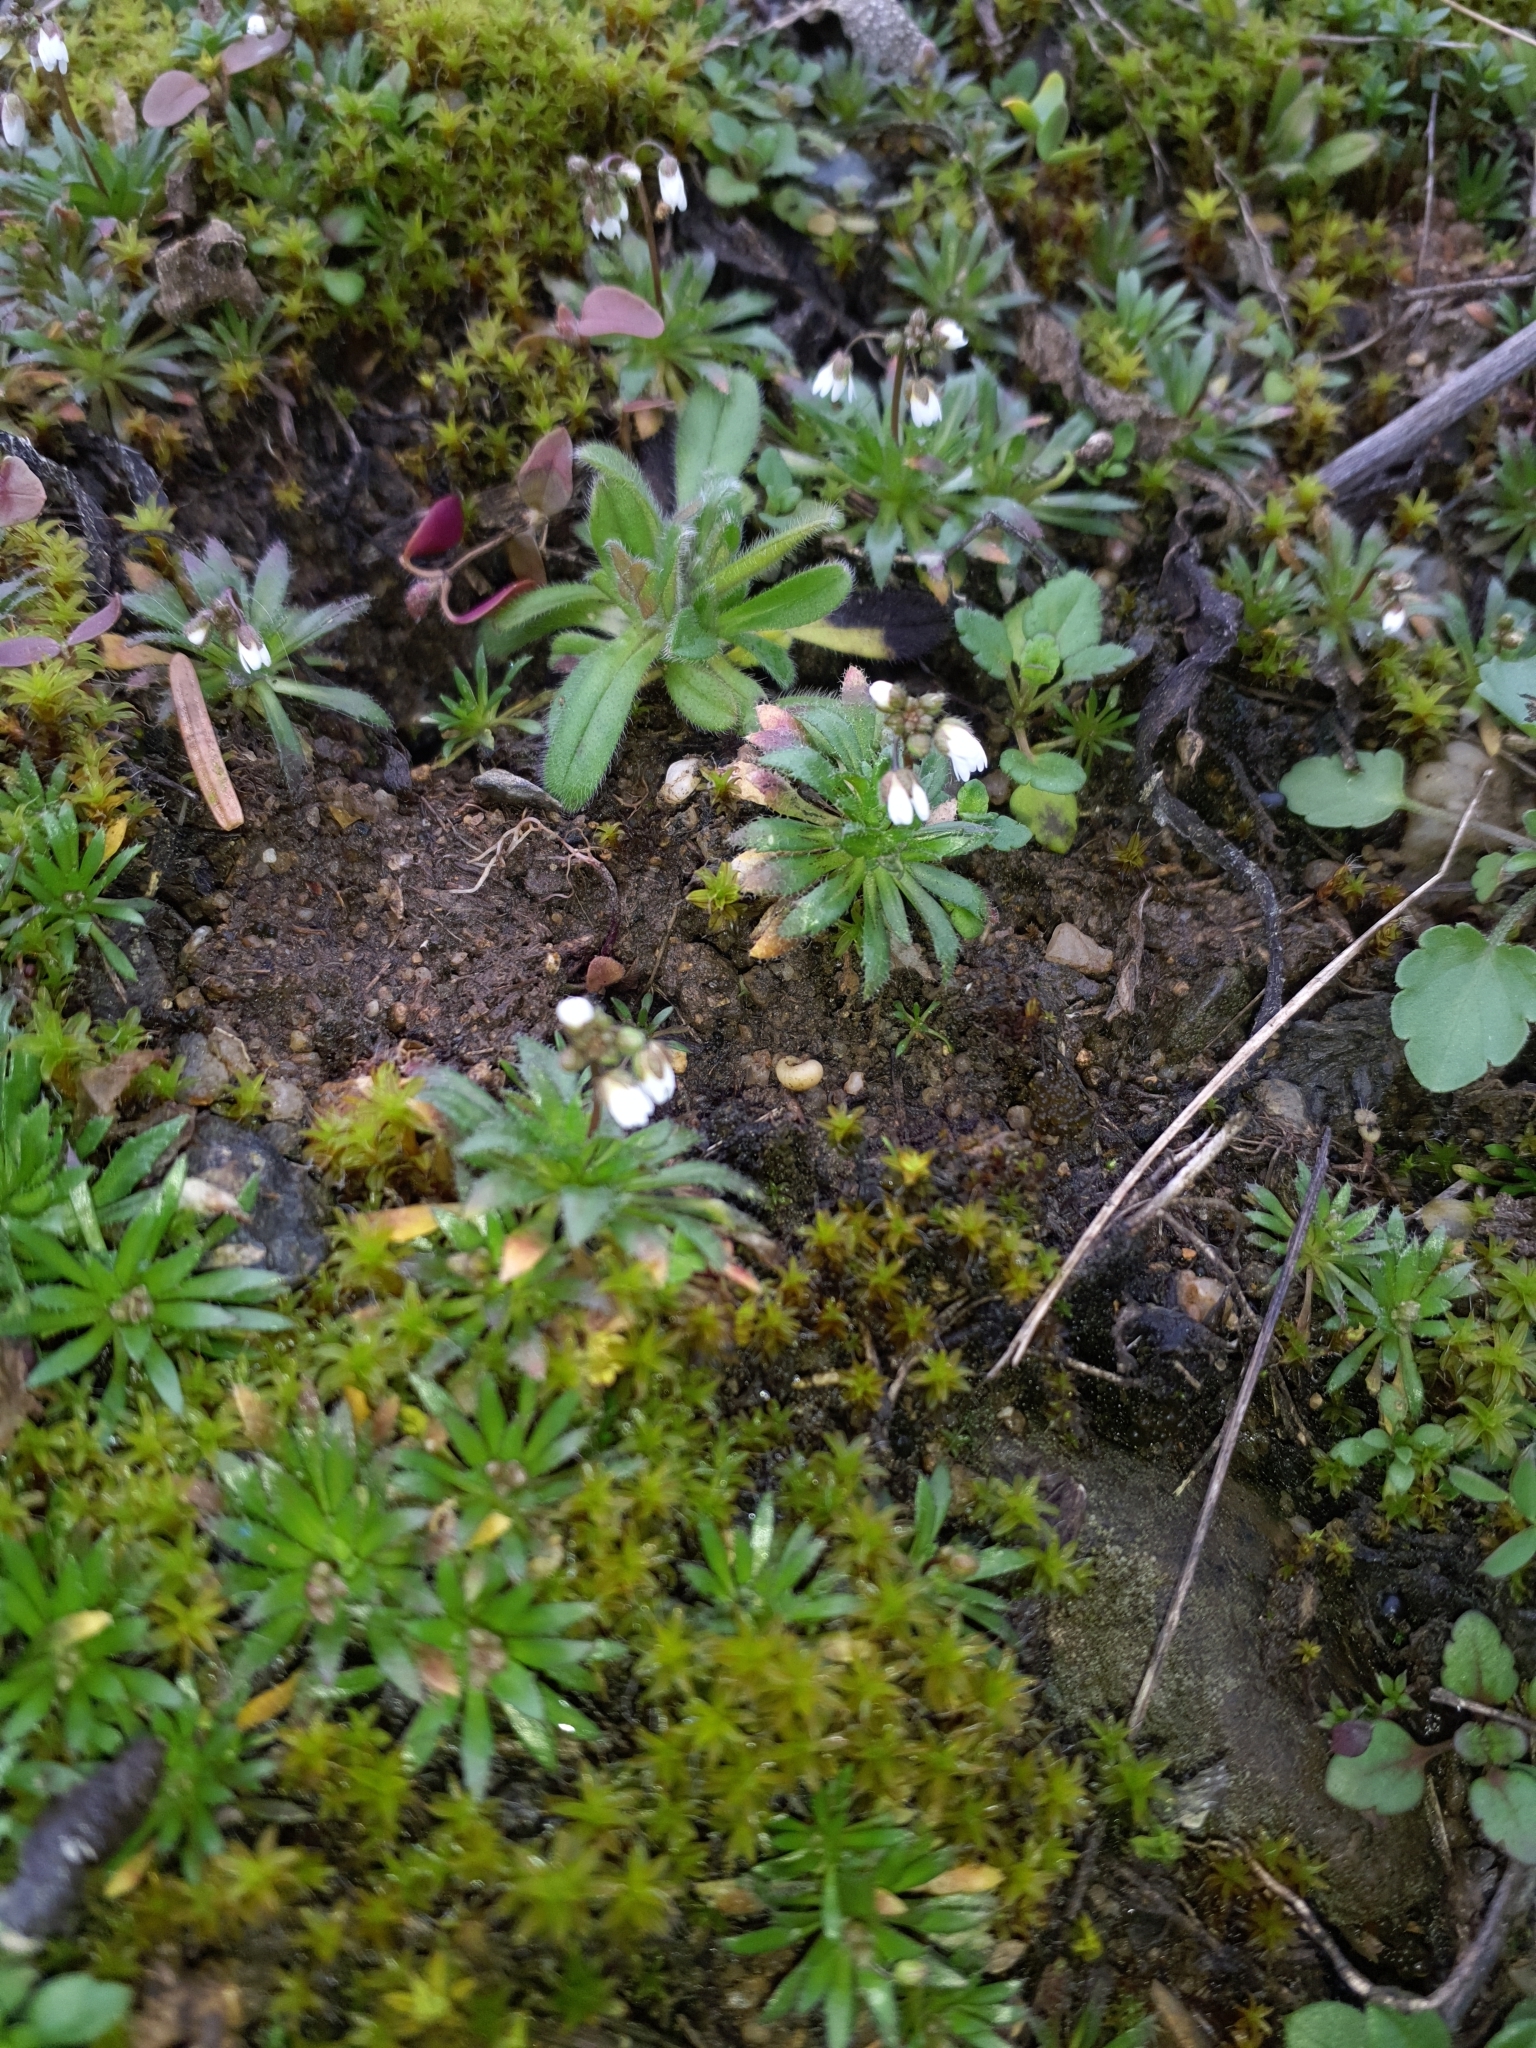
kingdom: Plantae
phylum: Tracheophyta
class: Magnoliopsida
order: Brassicales
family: Brassicaceae
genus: Draba
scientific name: Draba verna
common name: Spring draba
